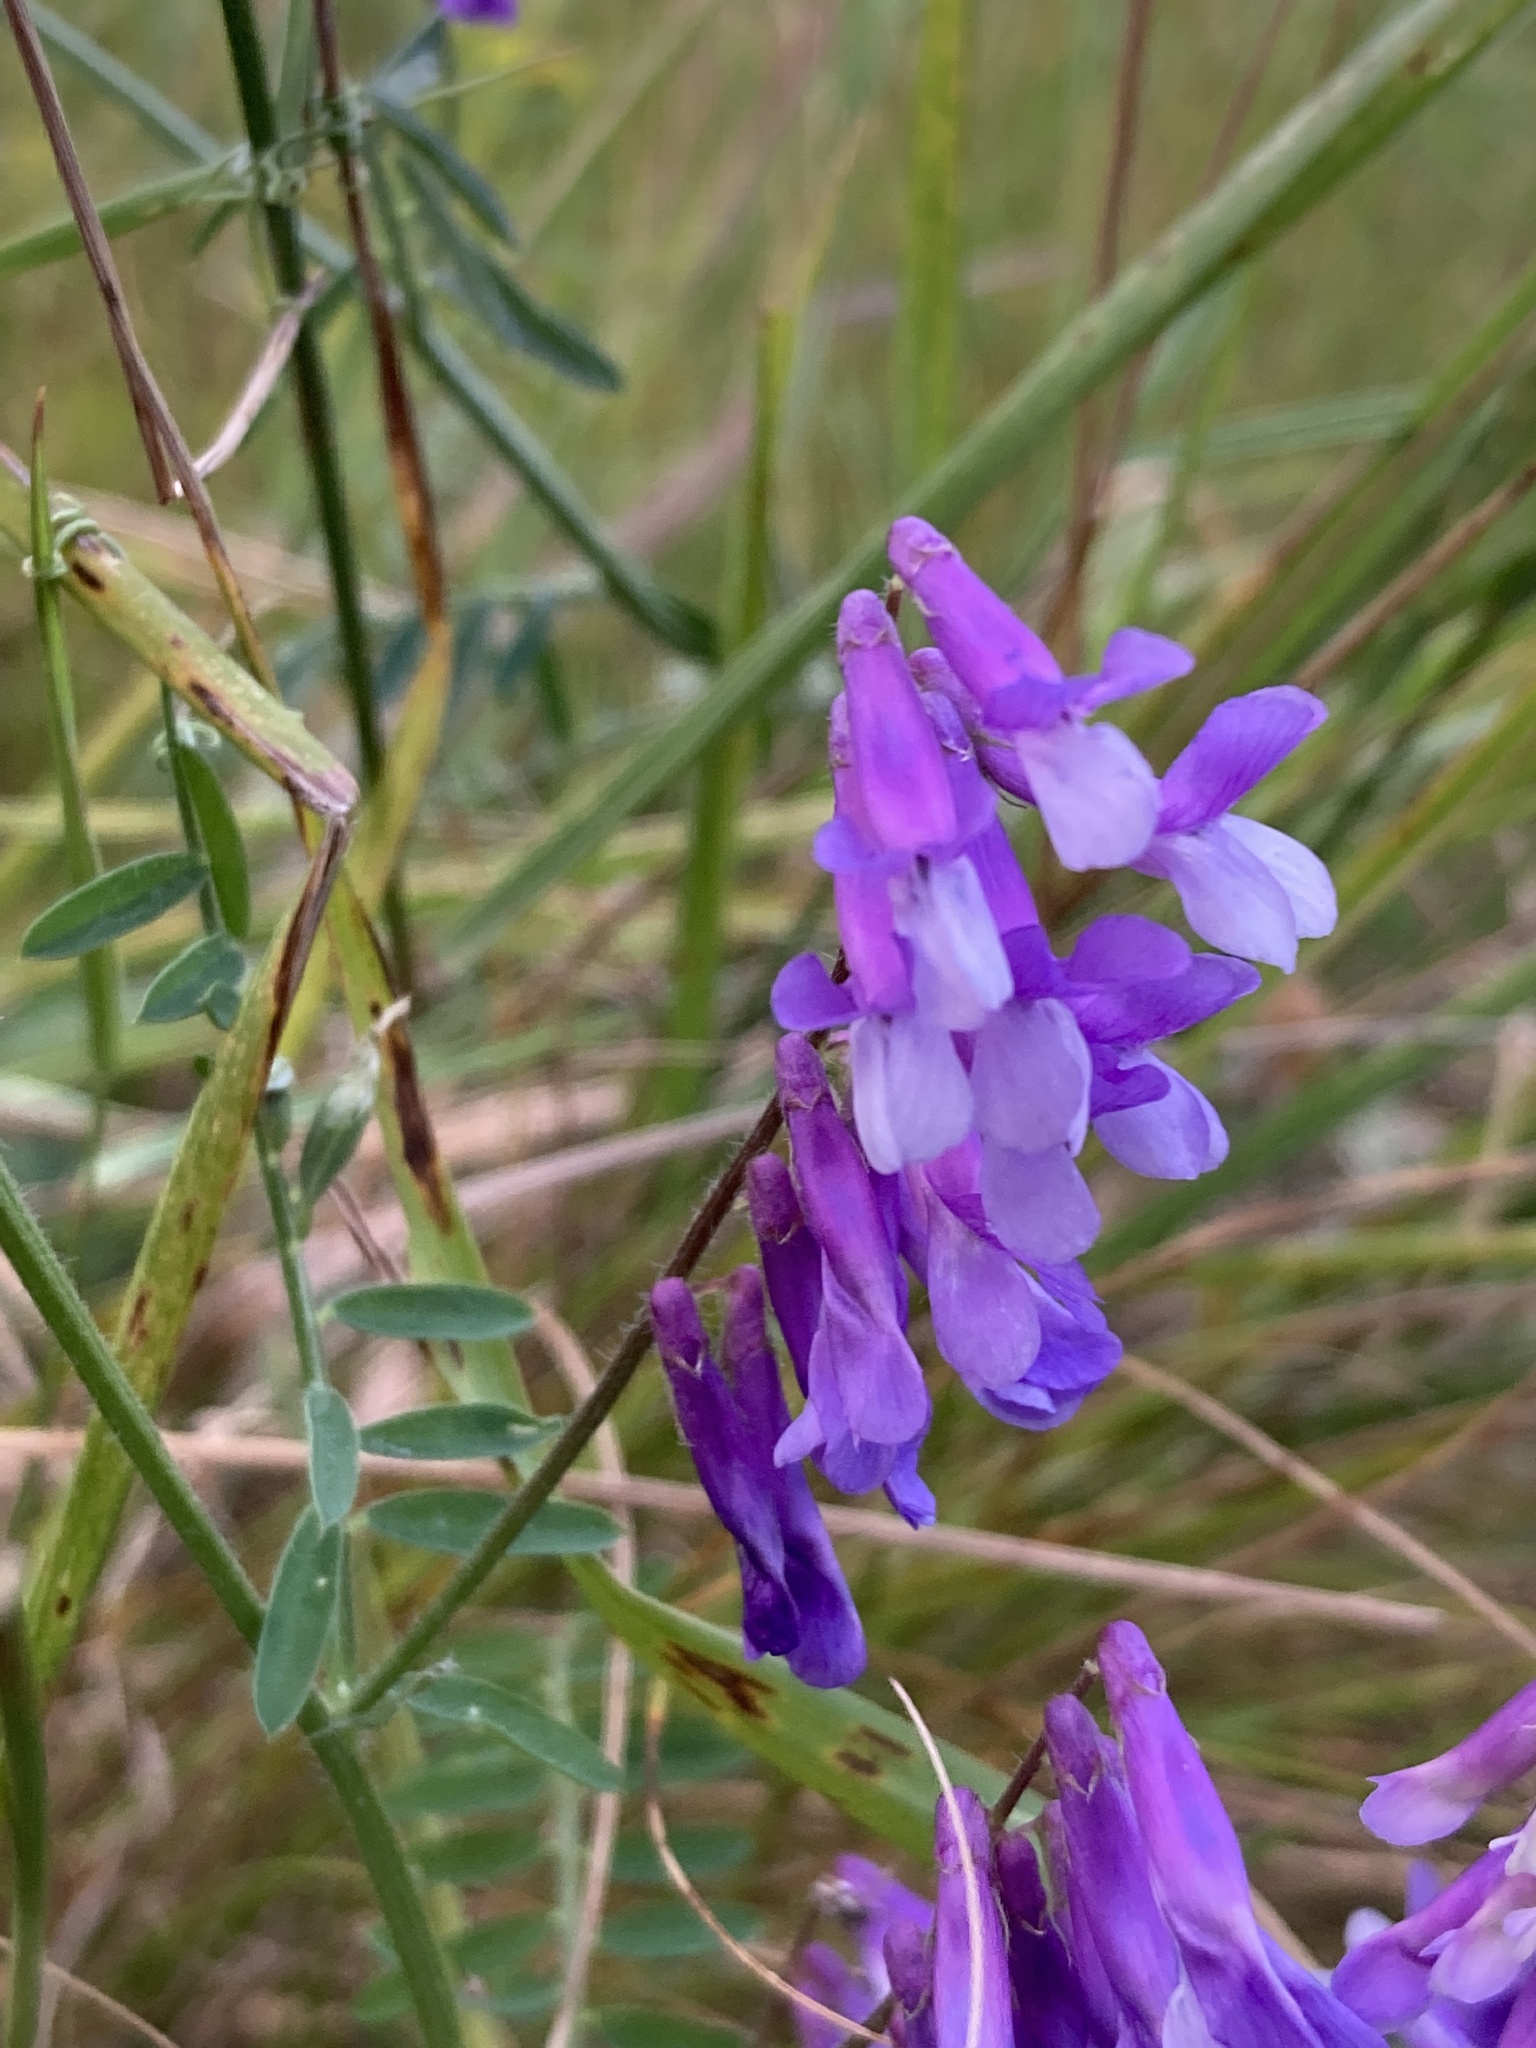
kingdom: Plantae
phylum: Tracheophyta
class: Magnoliopsida
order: Fabales
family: Fabaceae
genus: Vicia
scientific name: Vicia villosa
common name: Fodder vetch
